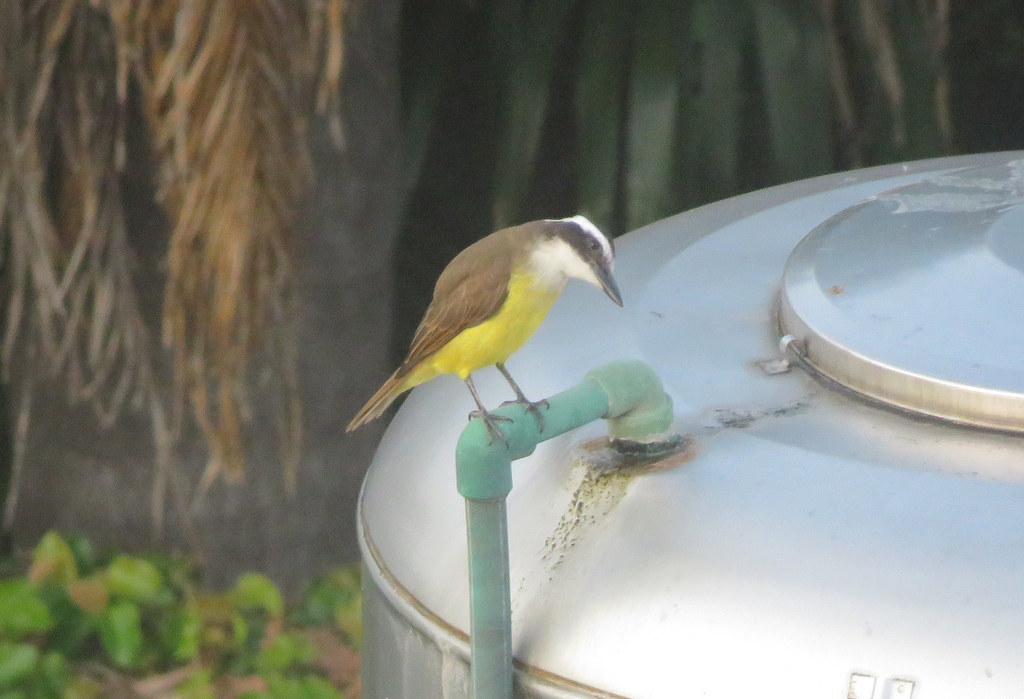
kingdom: Animalia
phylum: Chordata
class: Aves
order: Passeriformes
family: Tyrannidae
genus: Pitangus
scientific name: Pitangus sulphuratus
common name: Great kiskadee
